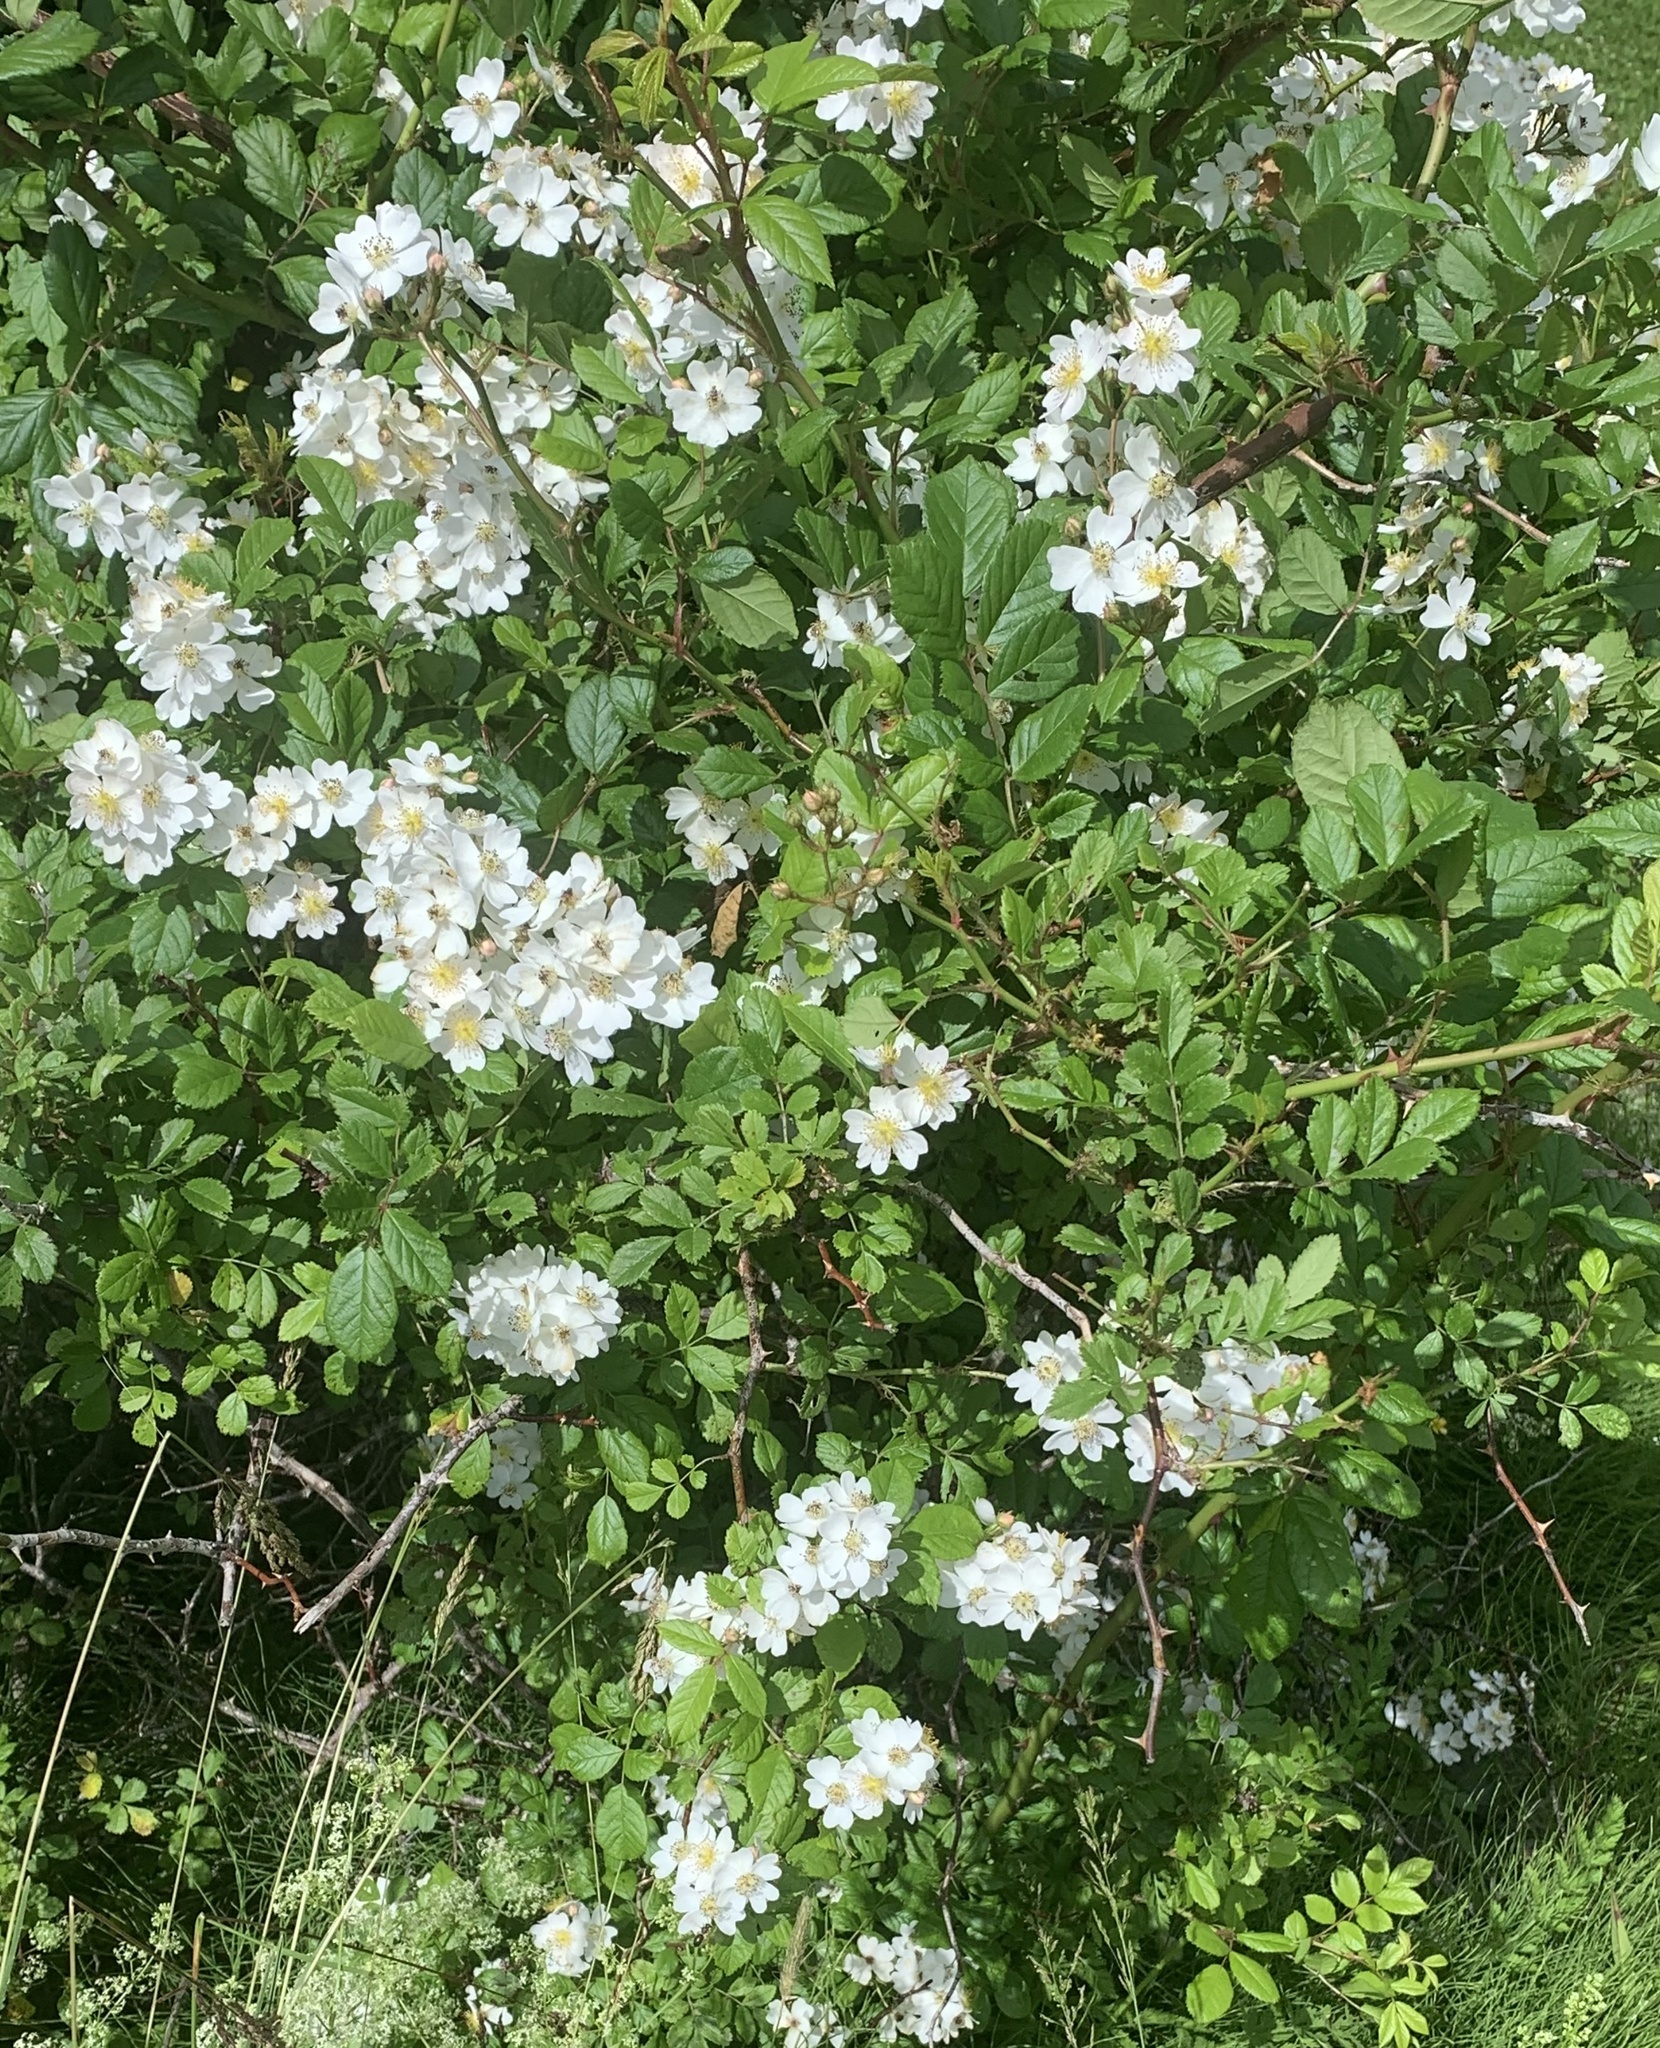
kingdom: Plantae
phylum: Tracheophyta
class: Magnoliopsida
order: Rosales
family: Rosaceae
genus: Rosa
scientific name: Rosa multiflora
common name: Multiflora rose
